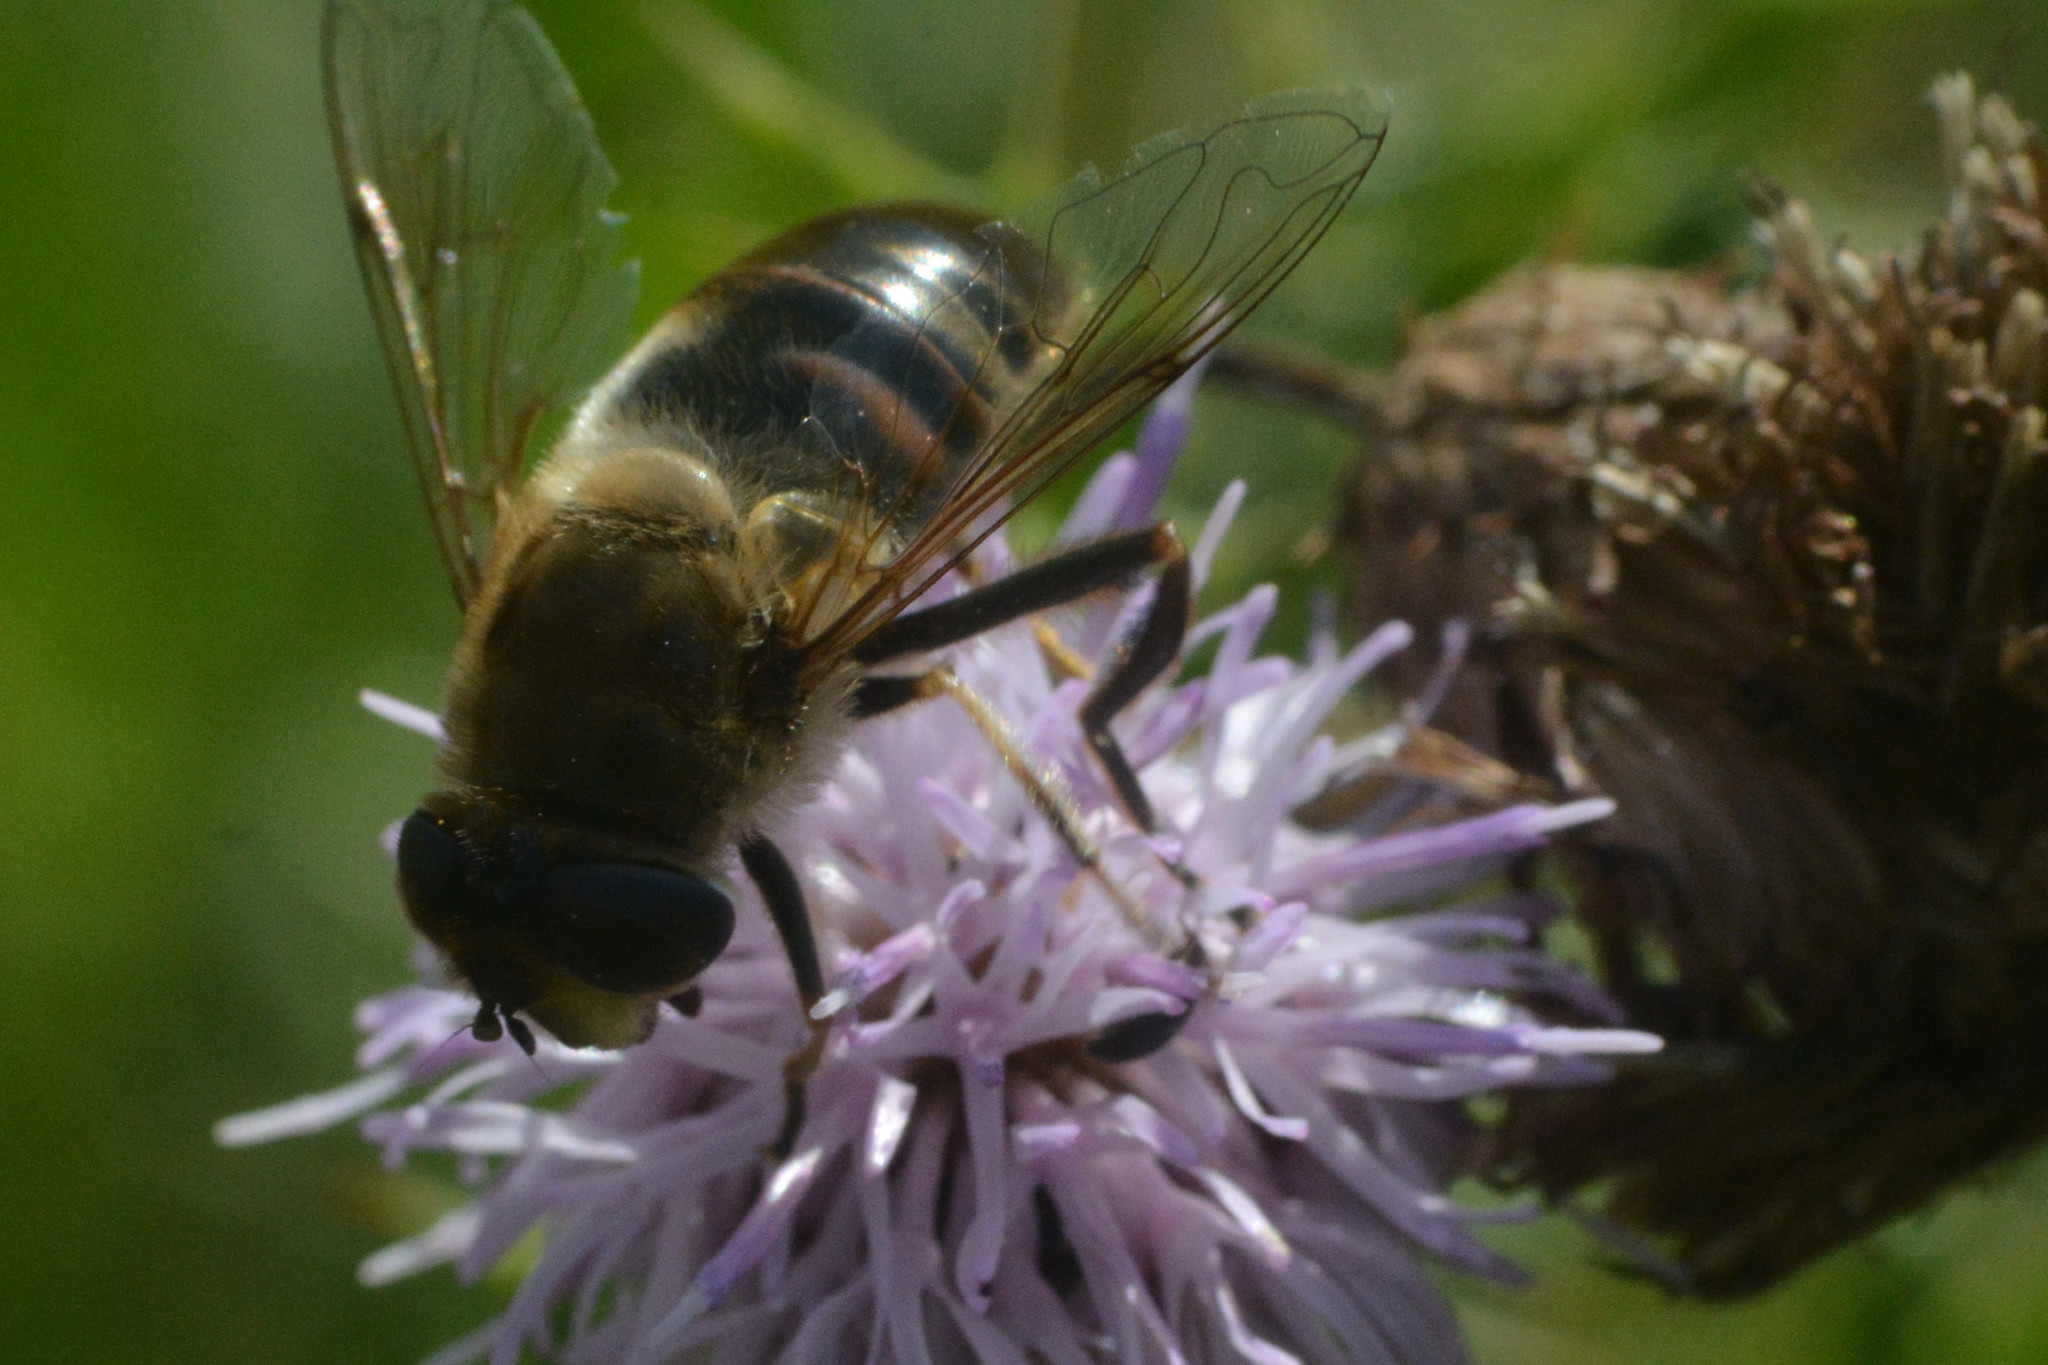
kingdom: Animalia
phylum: Arthropoda
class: Insecta
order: Diptera
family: Syrphidae
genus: Eristalis
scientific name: Eristalis tenax
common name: Drone fly
